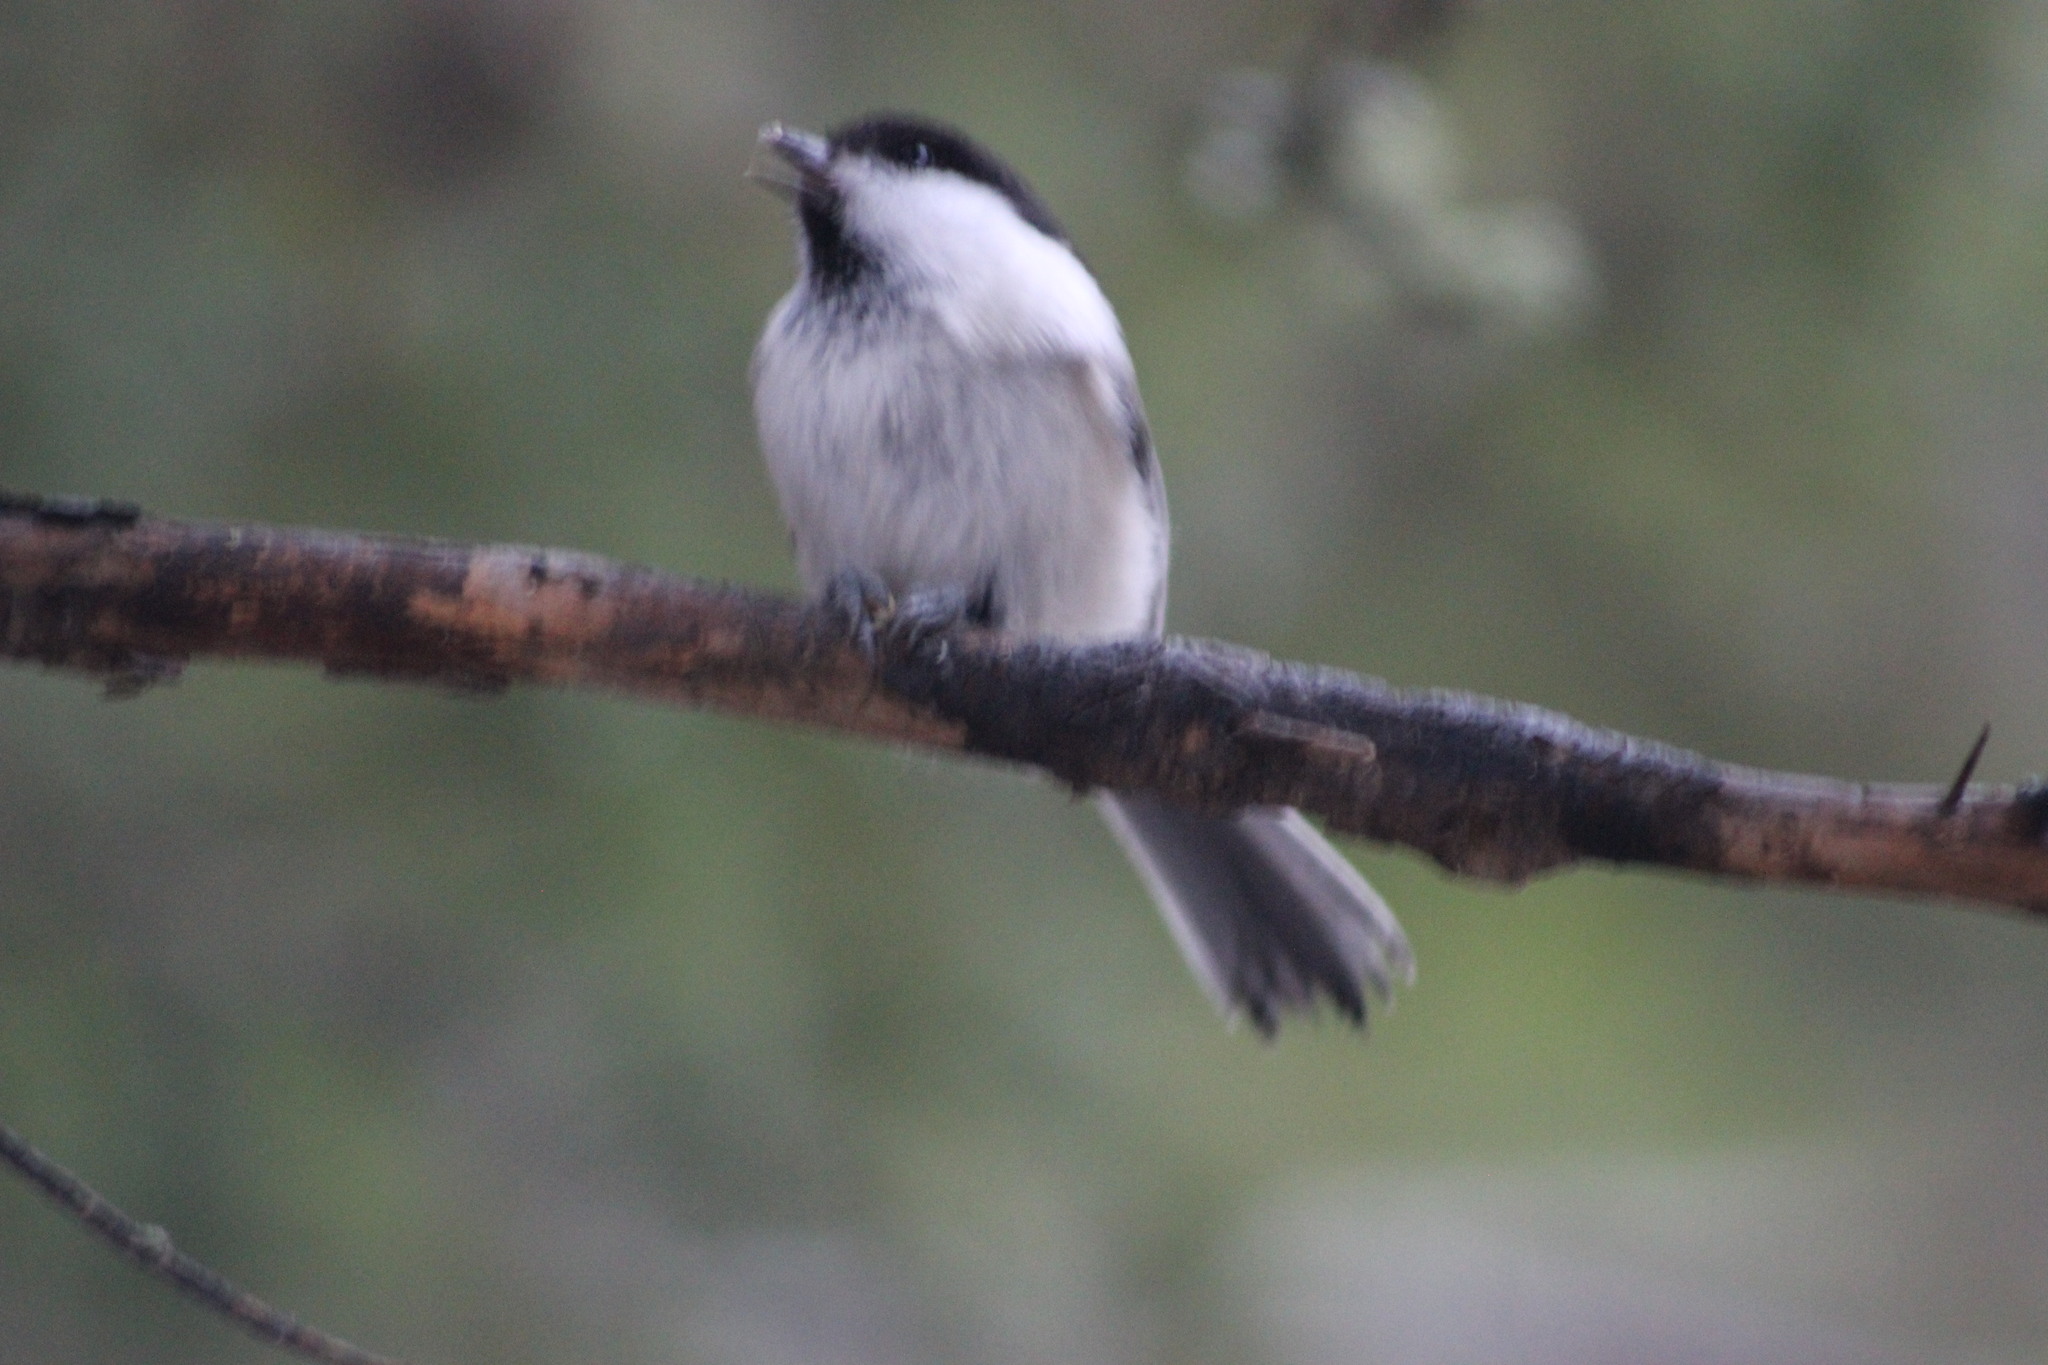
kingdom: Animalia
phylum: Chordata
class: Aves
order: Passeriformes
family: Paridae
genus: Poecile
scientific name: Poecile montanus
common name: Willow tit
